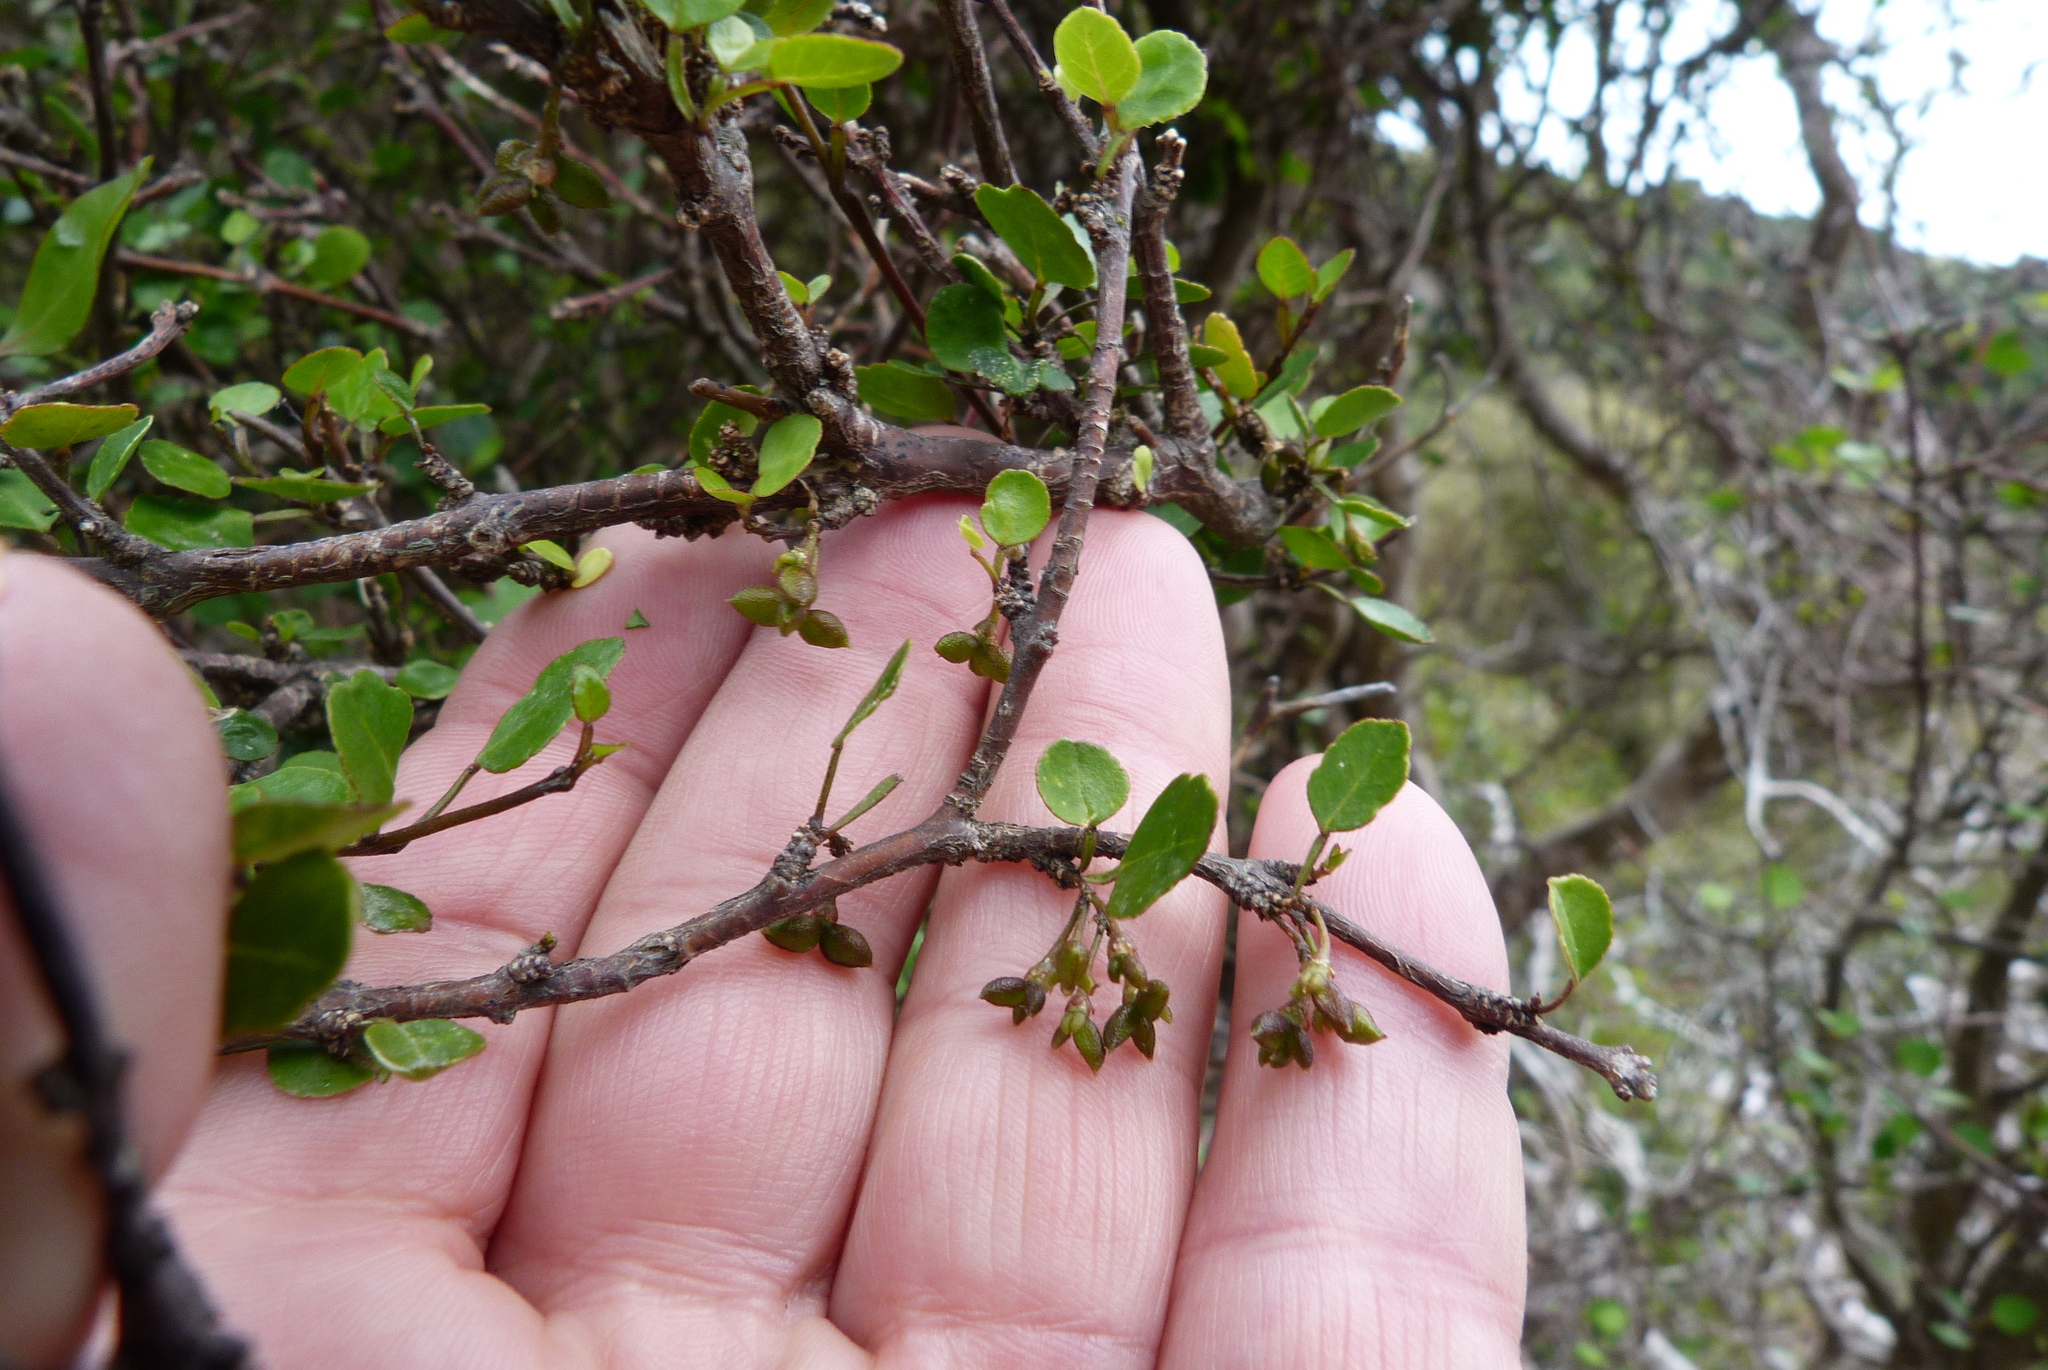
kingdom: Plantae
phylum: Tracheophyta
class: Magnoliopsida
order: Sapindales
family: Rutaceae
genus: Melicope
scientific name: Melicope simplex
